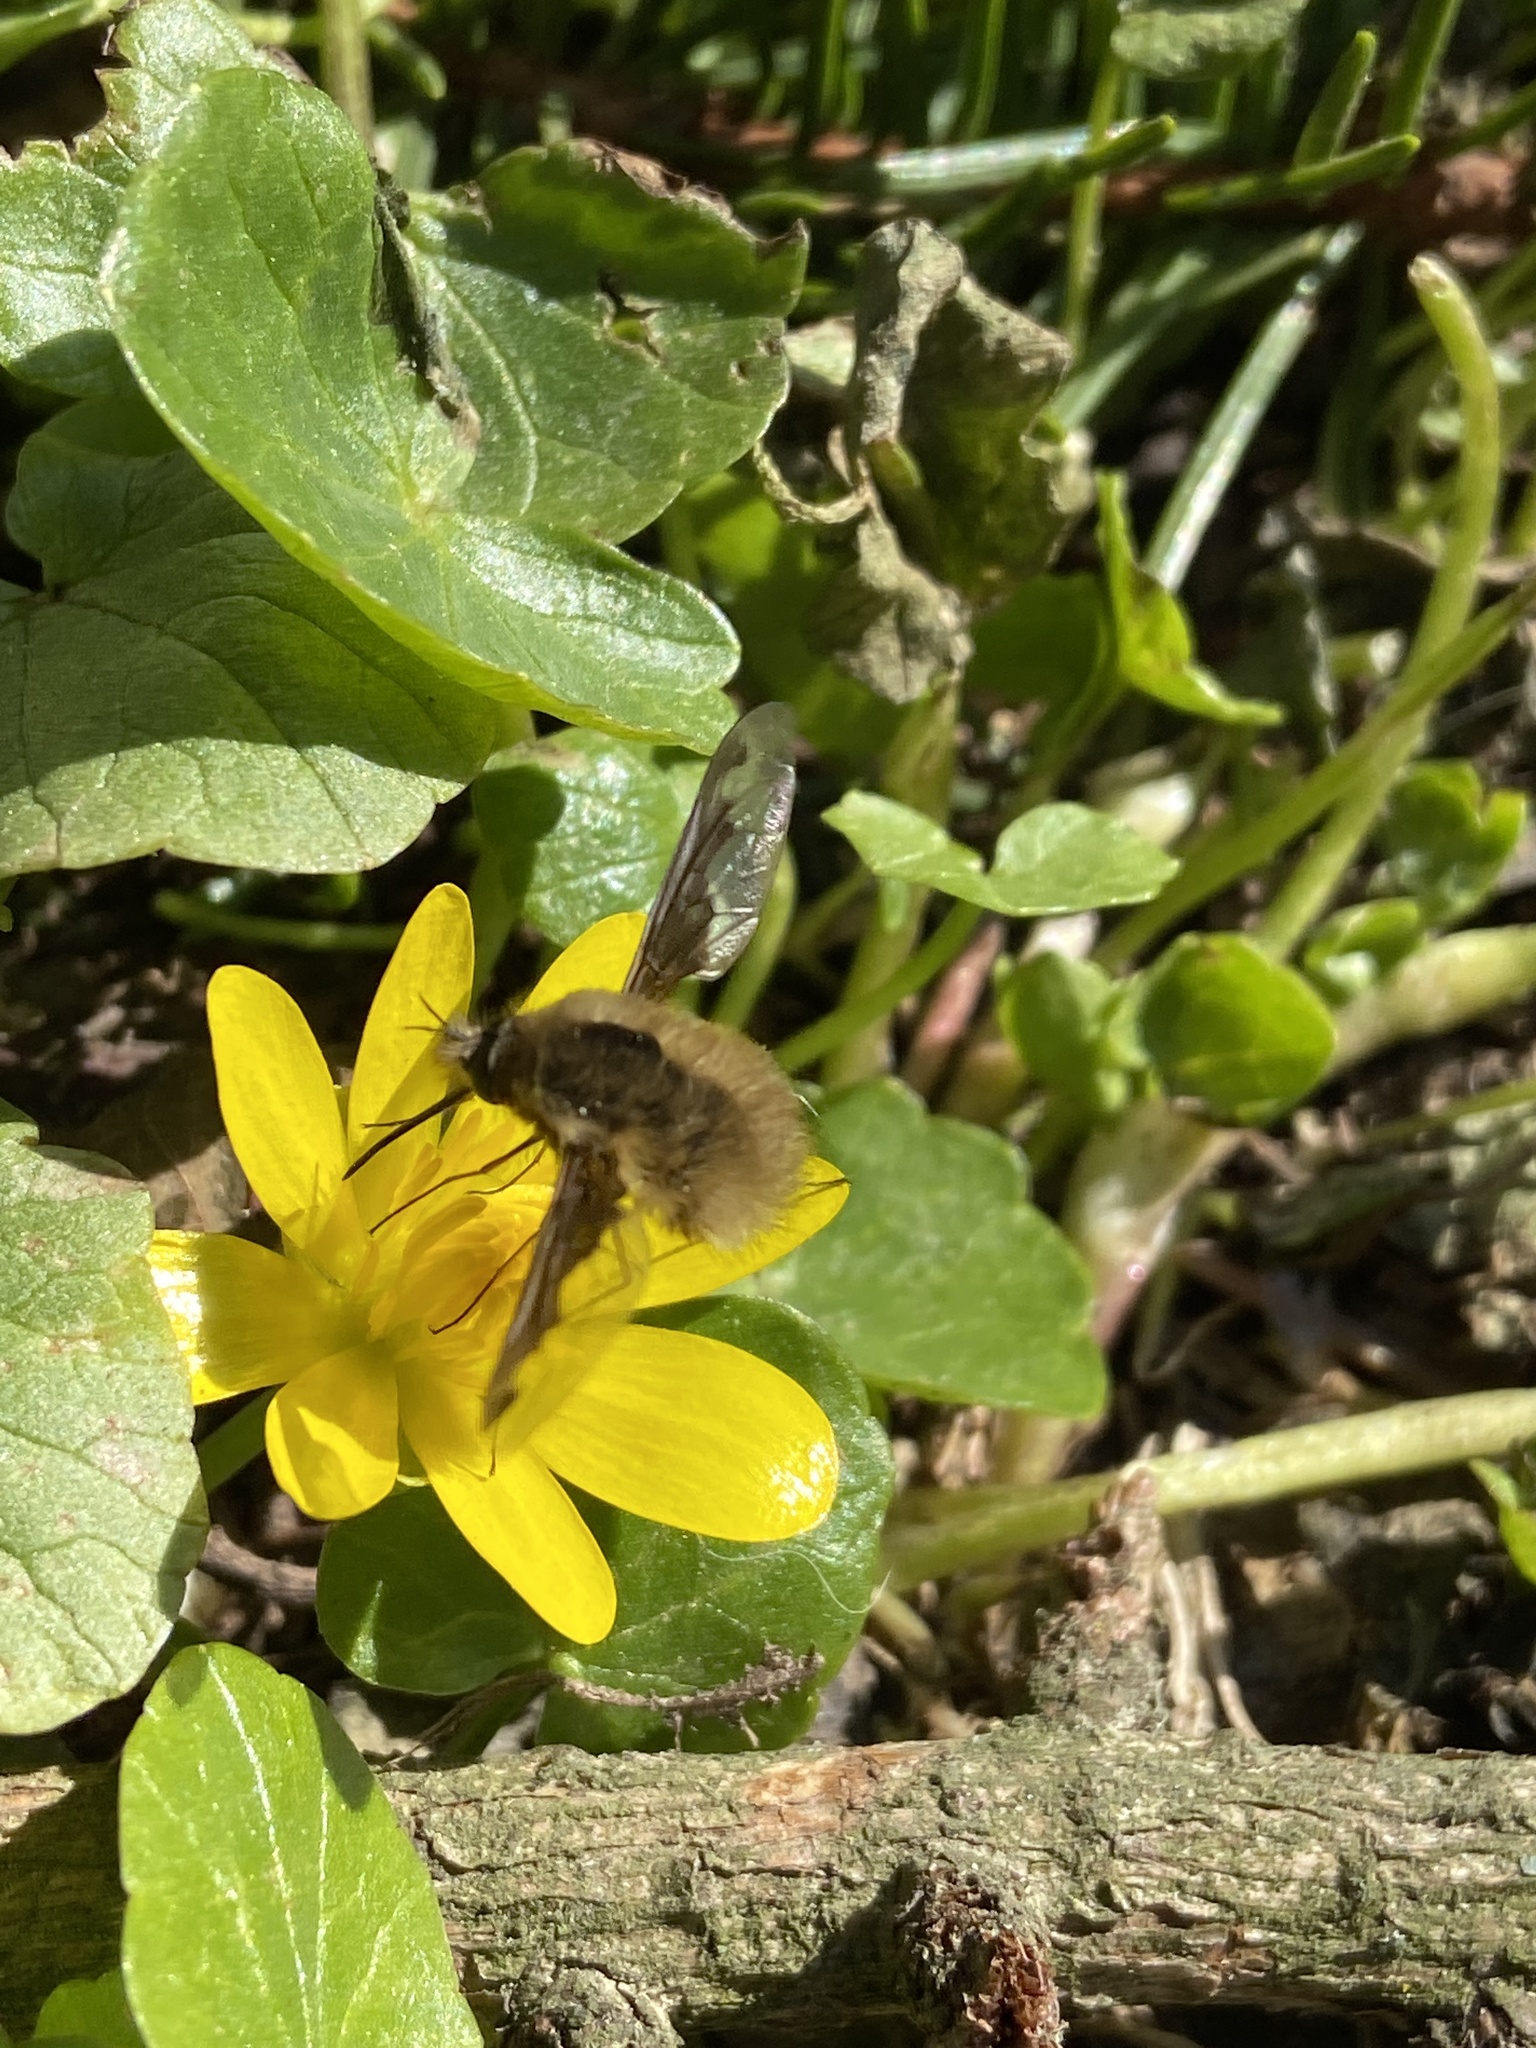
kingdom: Animalia
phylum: Arthropoda
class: Insecta
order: Diptera
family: Bombyliidae
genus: Bombylius
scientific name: Bombylius major
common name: Bee fly
